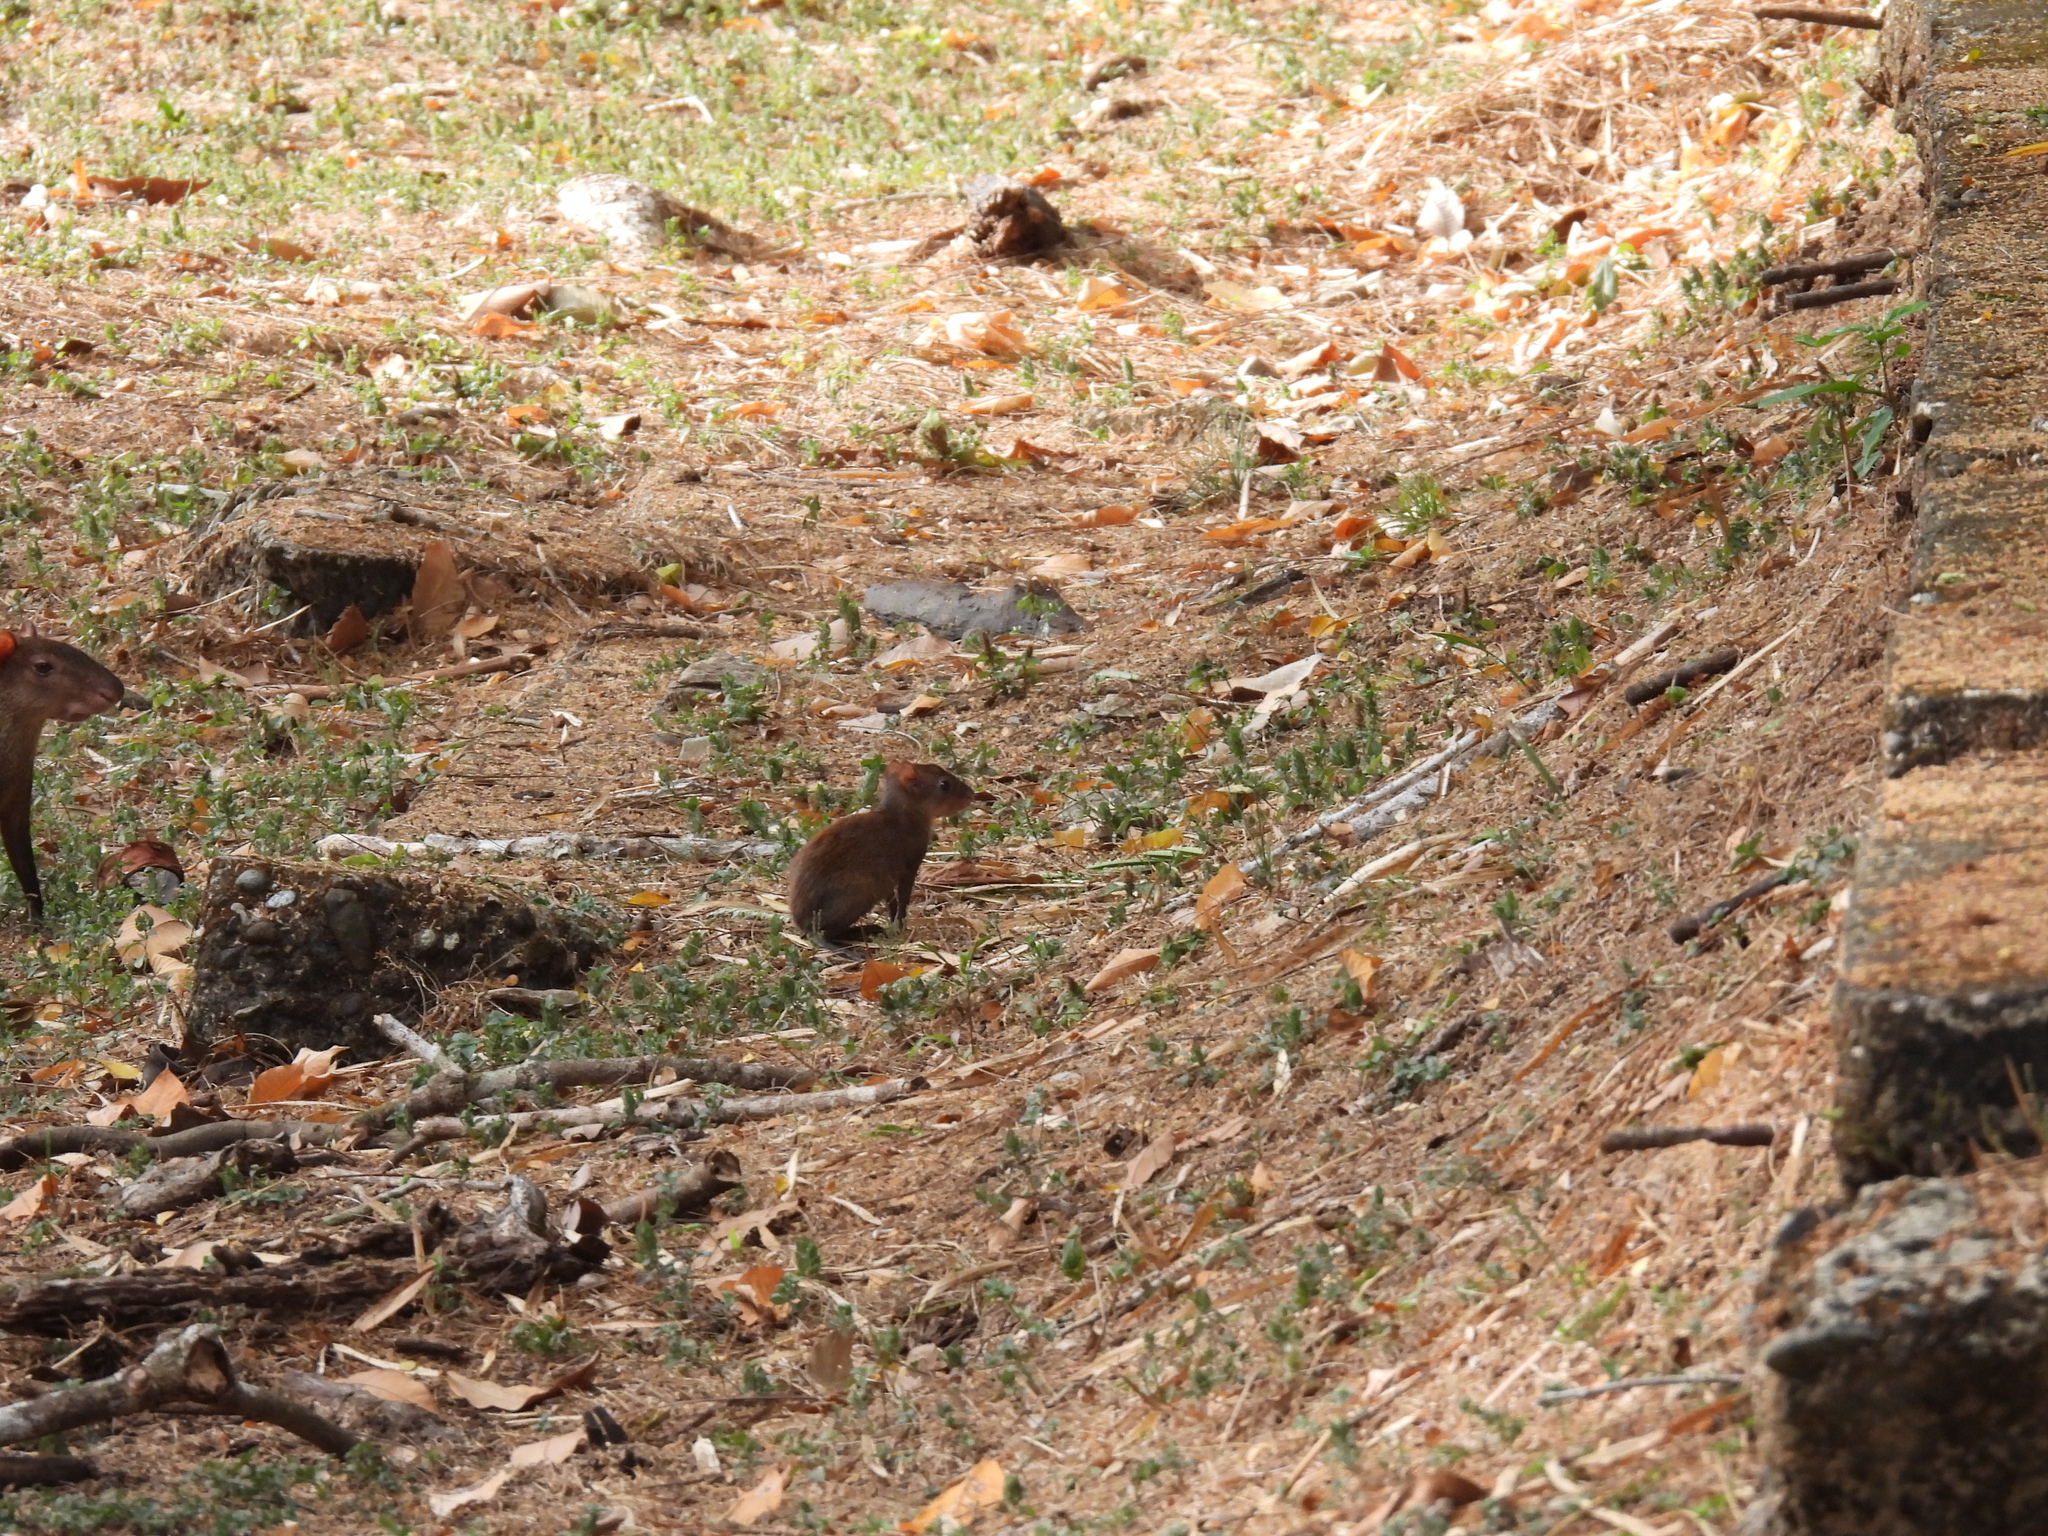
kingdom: Animalia
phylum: Chordata
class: Mammalia
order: Rodentia
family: Dasyproctidae
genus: Dasyprocta
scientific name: Dasyprocta punctata
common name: Central american agouti
